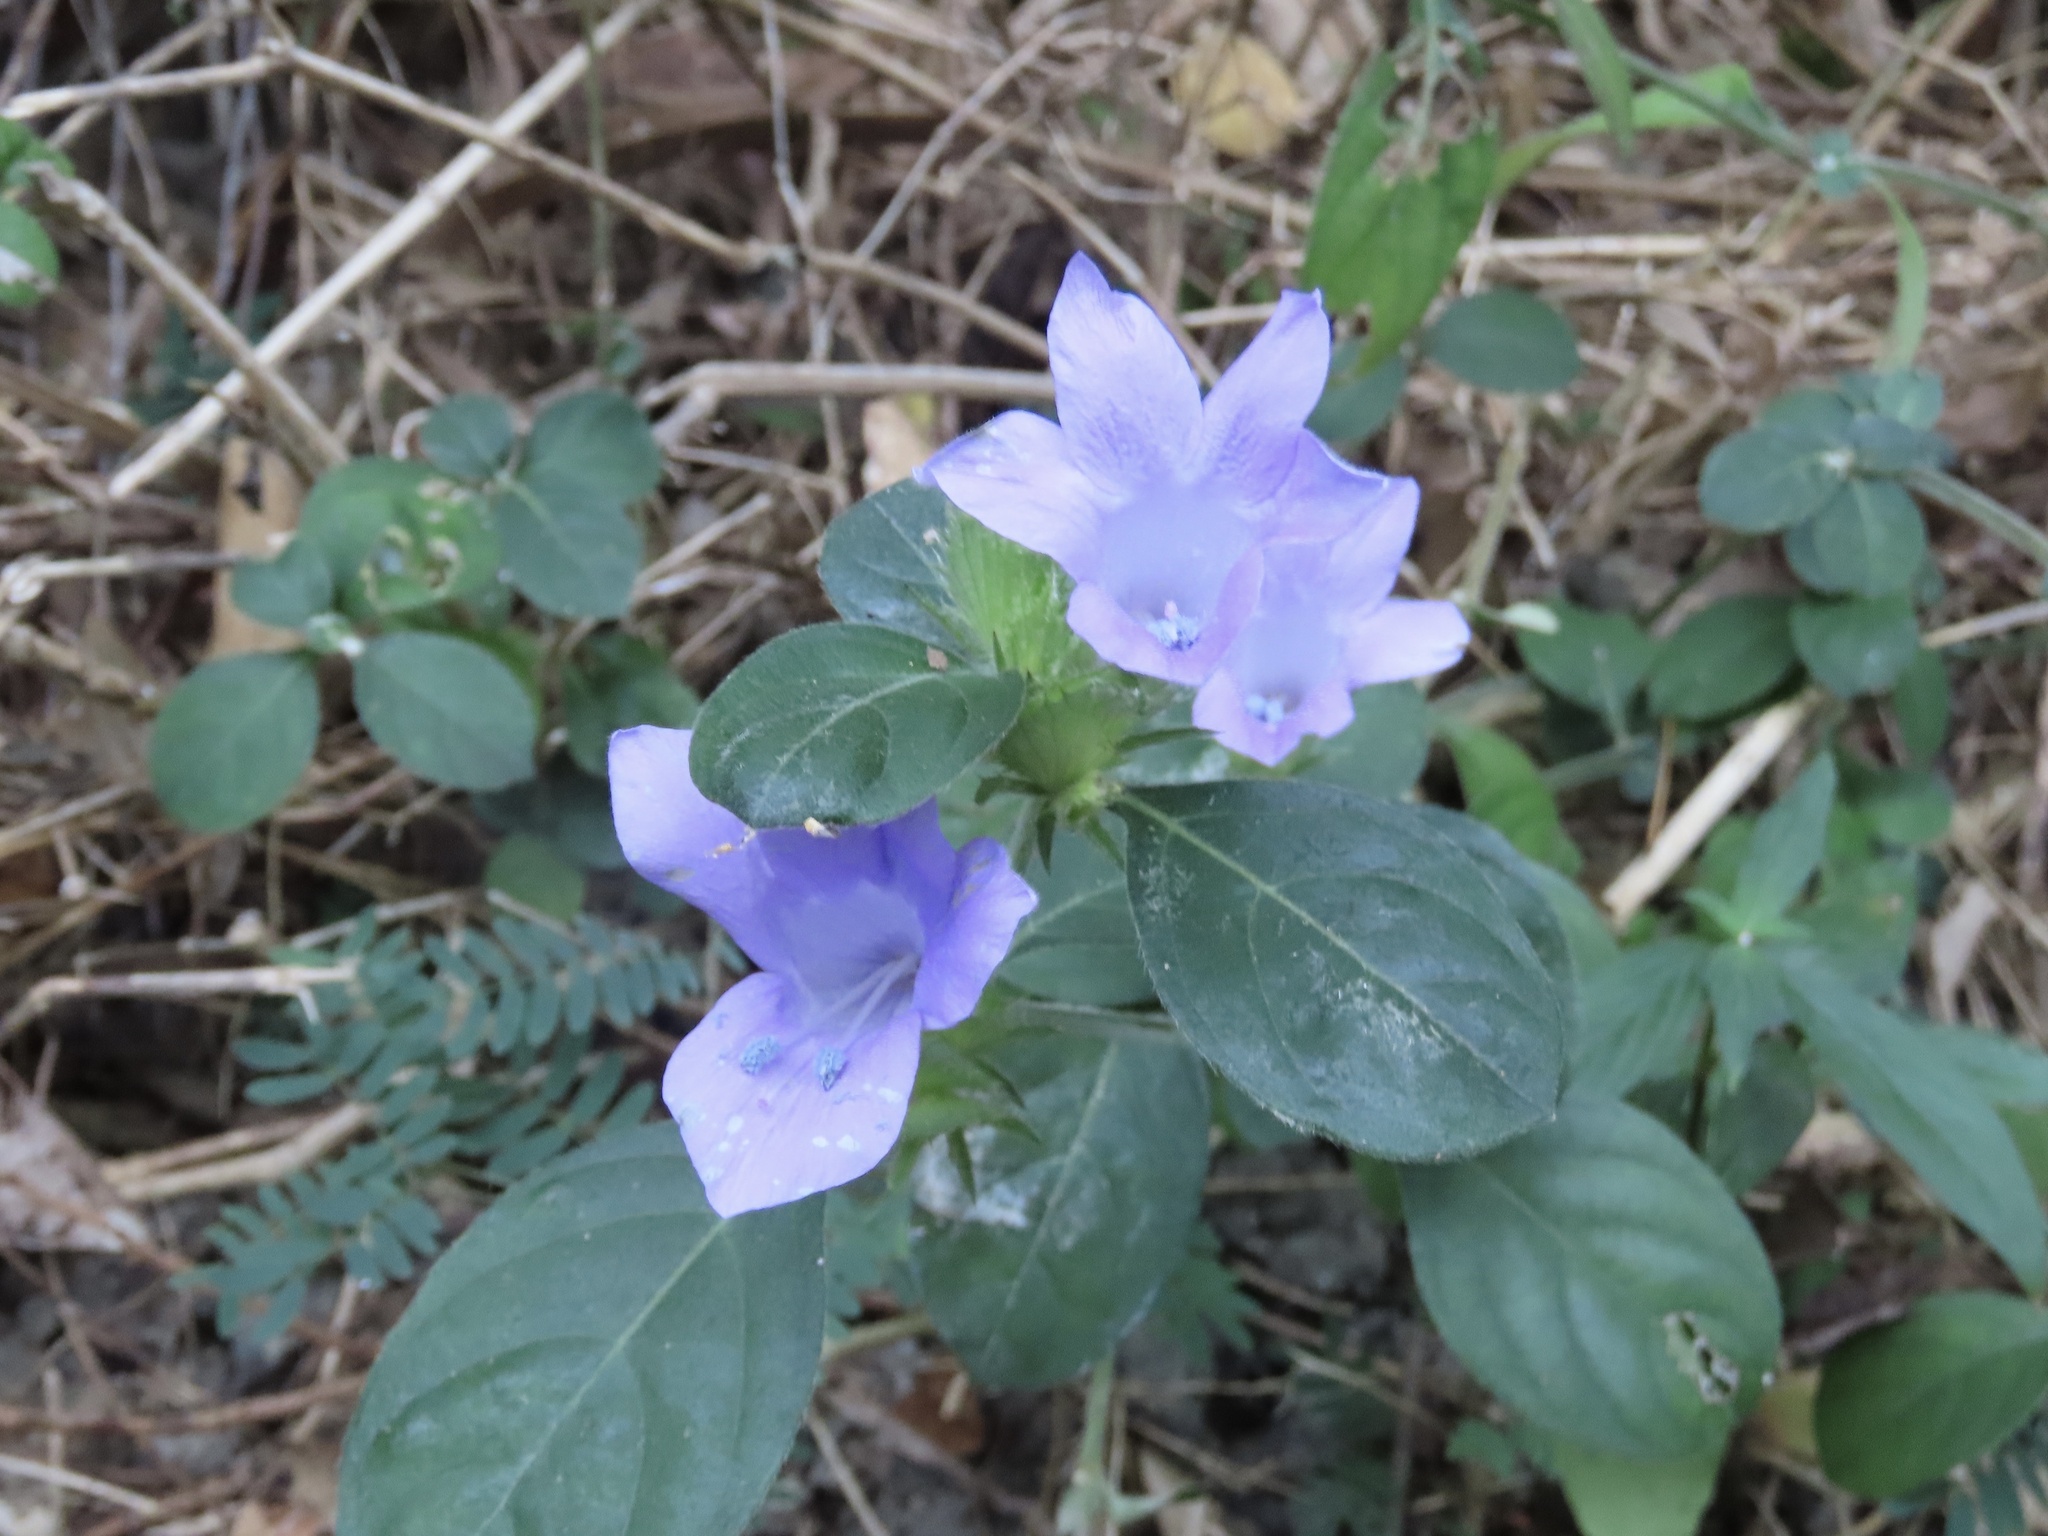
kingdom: Plantae
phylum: Tracheophyta
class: Magnoliopsida
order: Lamiales
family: Acanthaceae
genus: Barleria
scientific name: Barleria cristata
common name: Crested philippine violet
